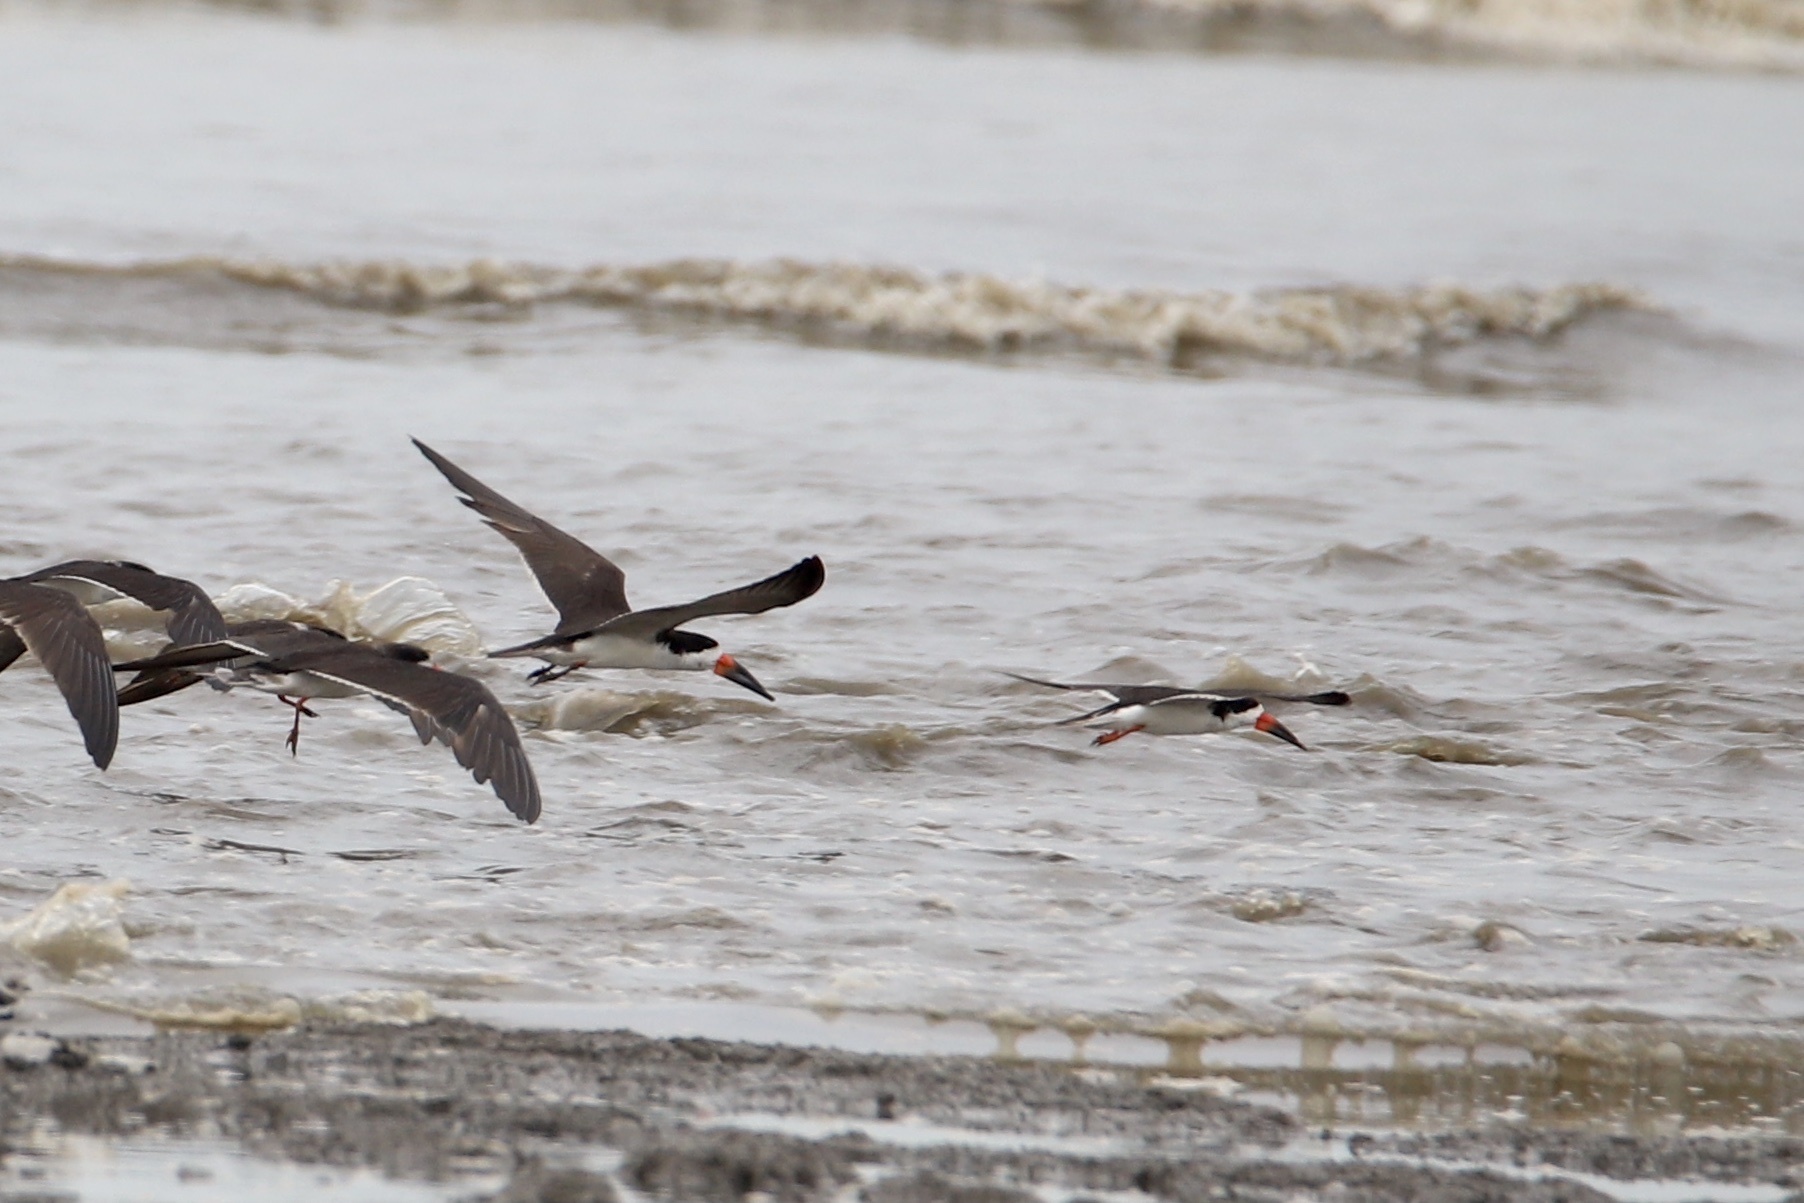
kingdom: Animalia
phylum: Chordata
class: Aves
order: Charadriiformes
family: Laridae
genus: Rynchops
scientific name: Rynchops niger
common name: Black skimmer
